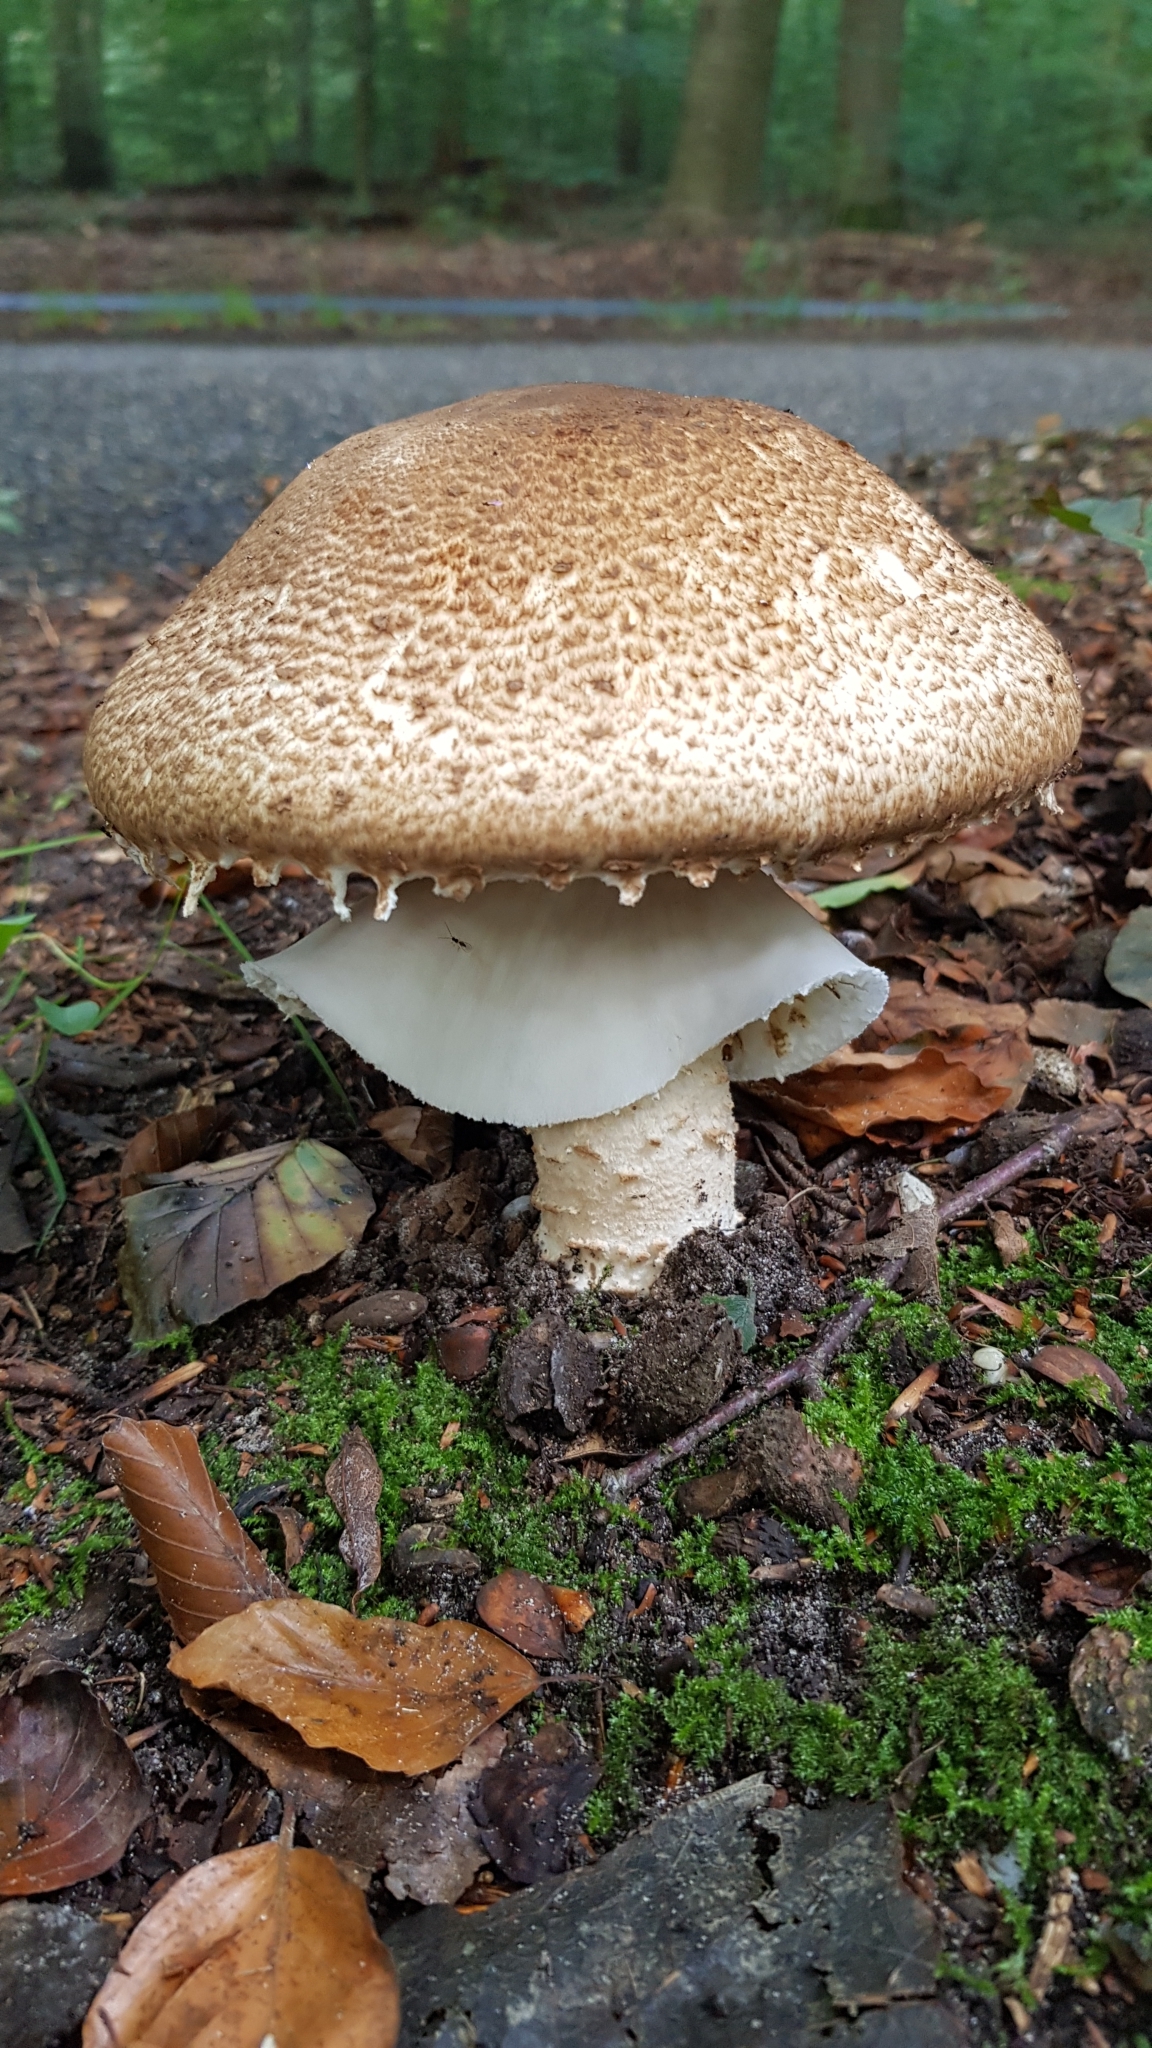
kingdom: Fungi
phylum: Basidiomycota
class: Agaricomycetes
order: Agaricales
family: Agaricaceae
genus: Agaricus
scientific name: Agaricus augustus
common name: Prince
